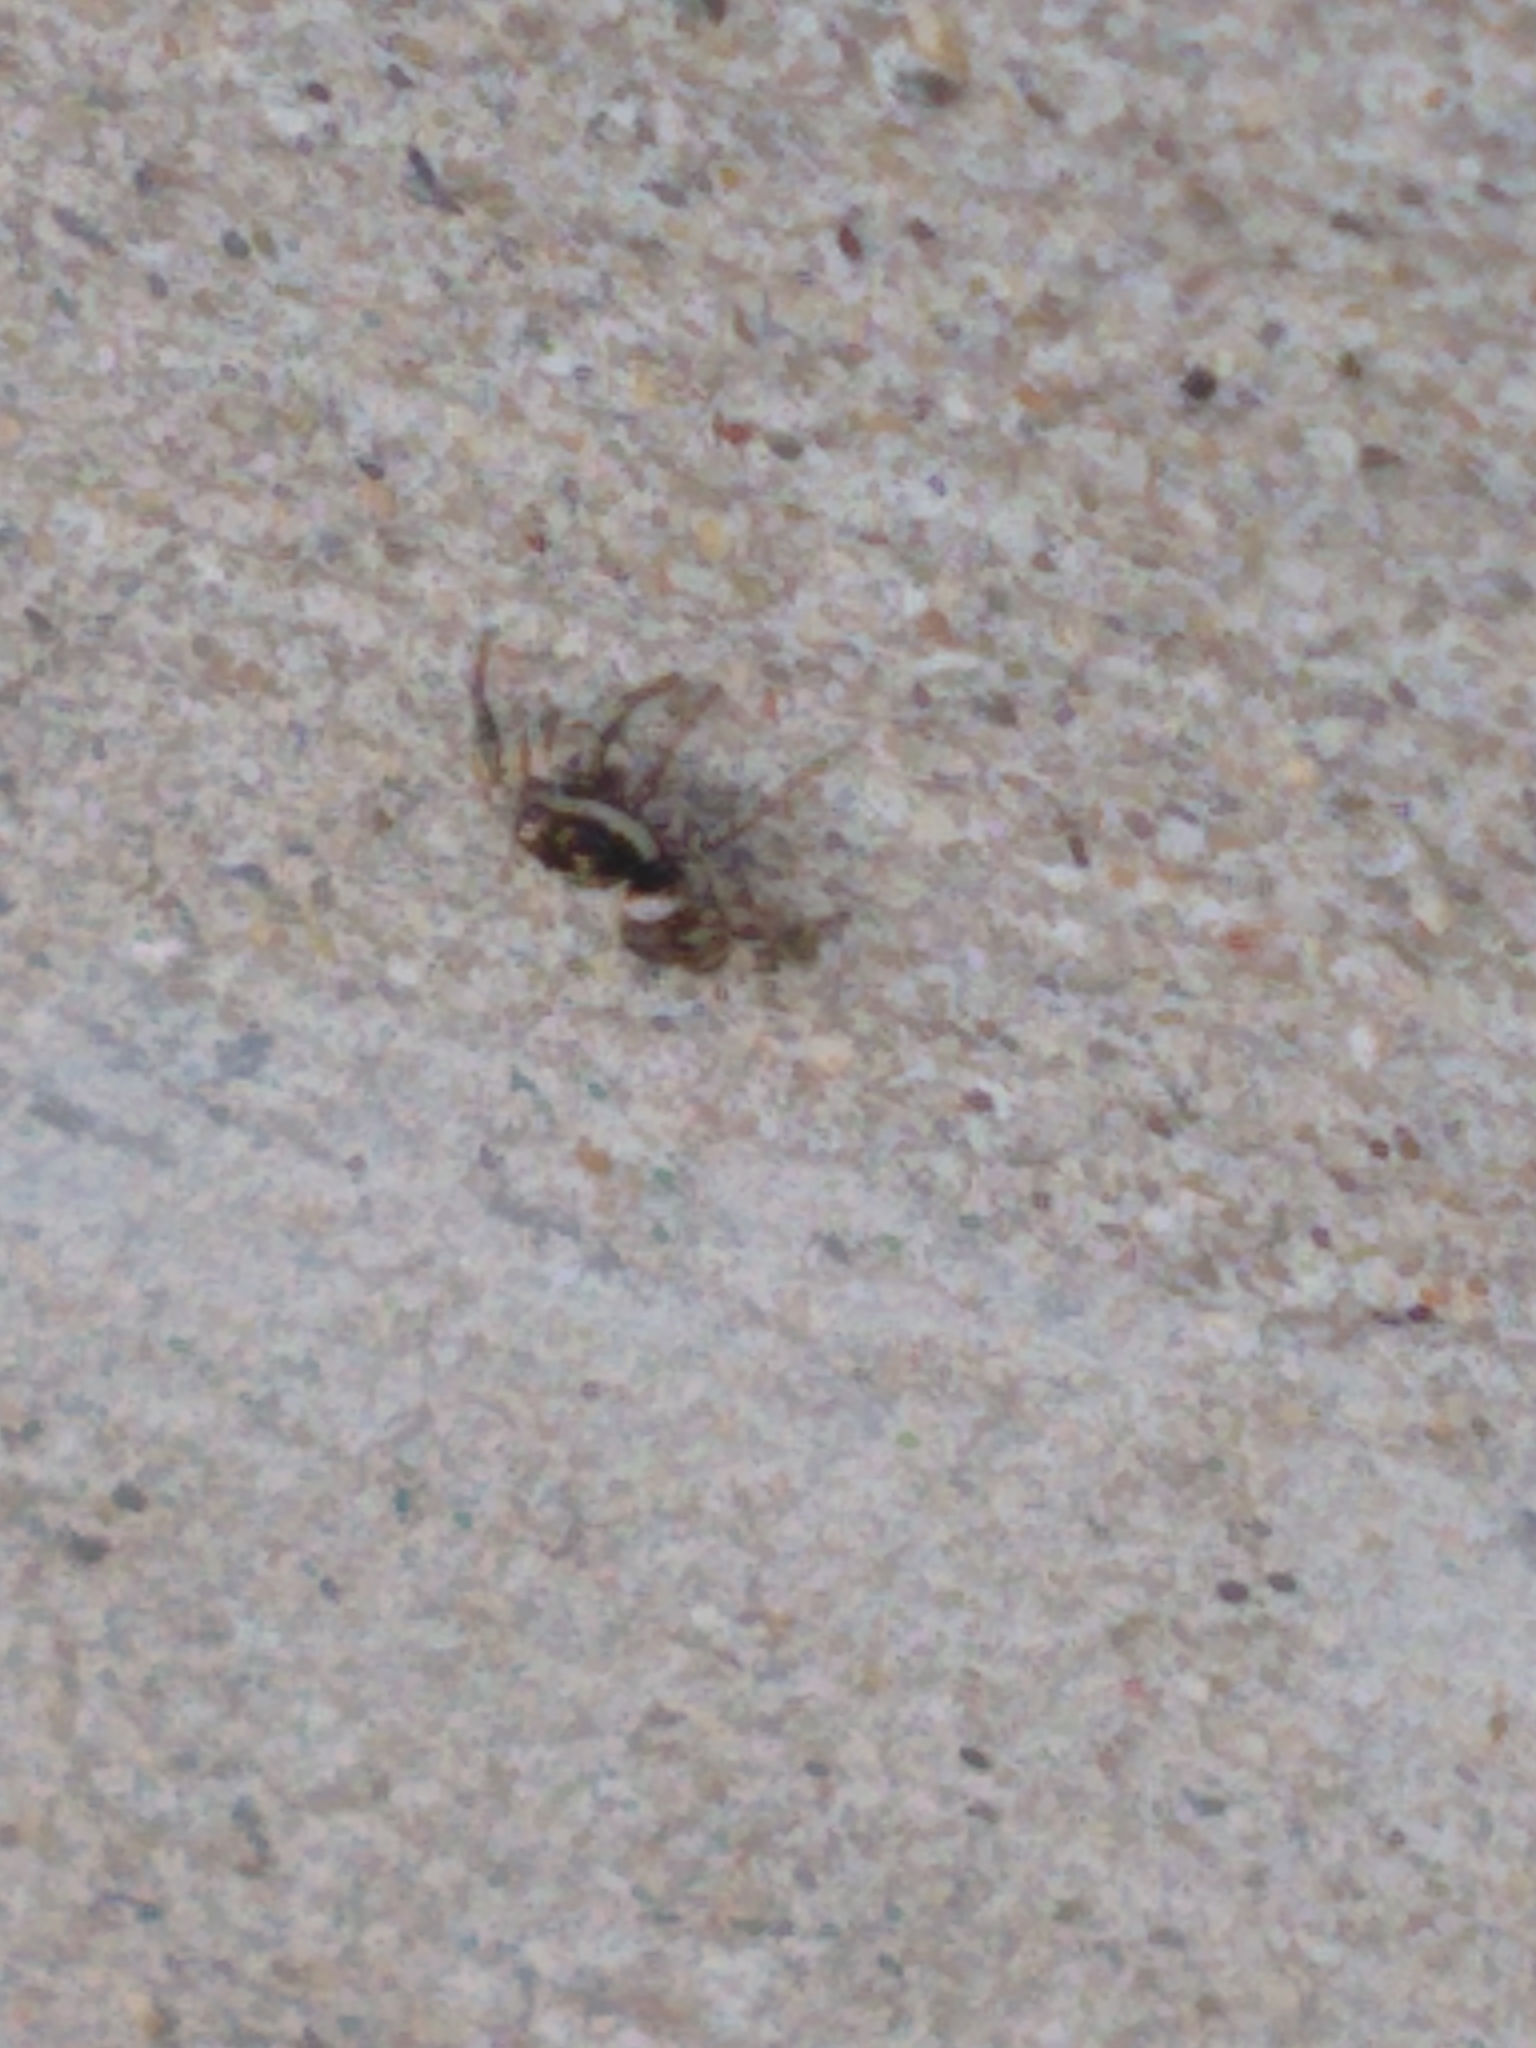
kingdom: Animalia
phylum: Arthropoda
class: Arachnida
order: Araneae
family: Salticidae
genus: Salticus
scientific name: Salticus scenicus
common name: Zebra jumper
